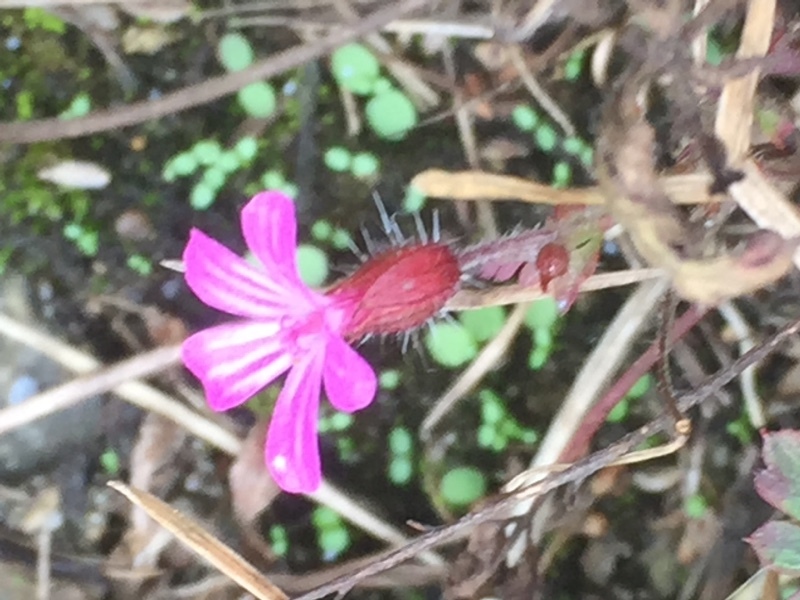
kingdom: Plantae
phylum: Tracheophyta
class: Magnoliopsida
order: Geraniales
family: Geraniaceae
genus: Geranium
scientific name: Geranium robertianum
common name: Herb-robert
